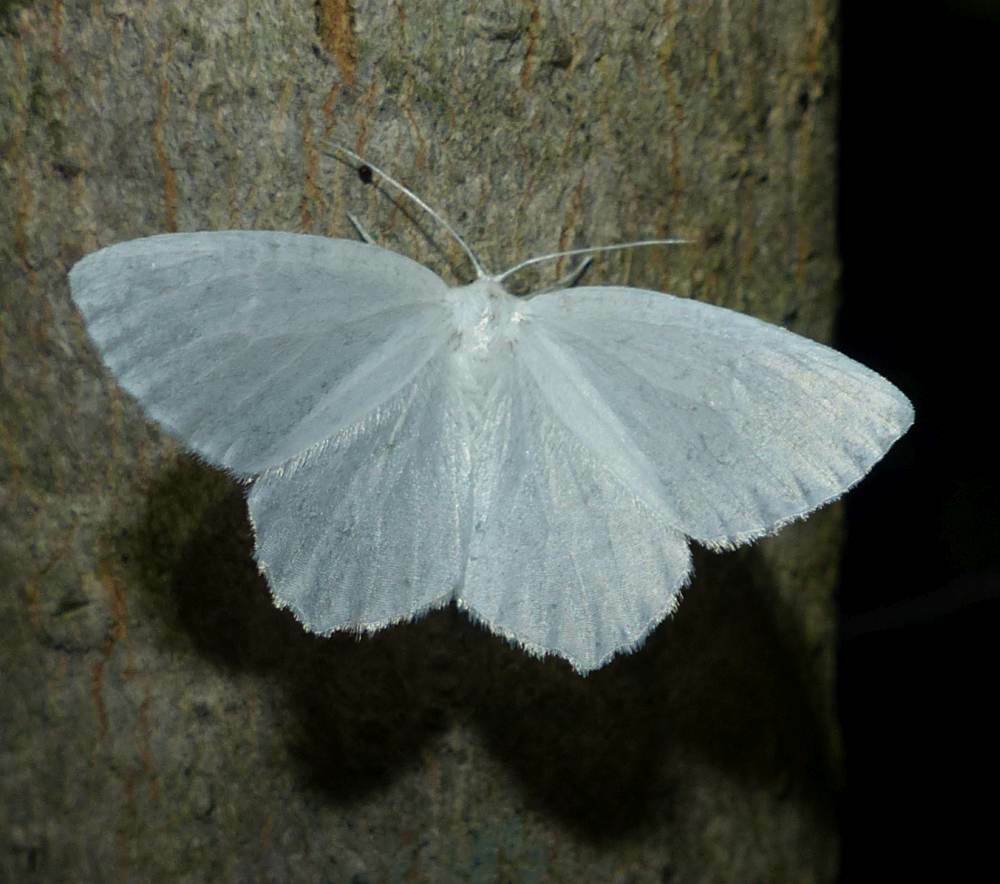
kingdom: Animalia
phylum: Arthropoda
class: Insecta
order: Lepidoptera
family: Geometridae
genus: Eugonobapta
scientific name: Eugonobapta nivosaria
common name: Snowy geometer
